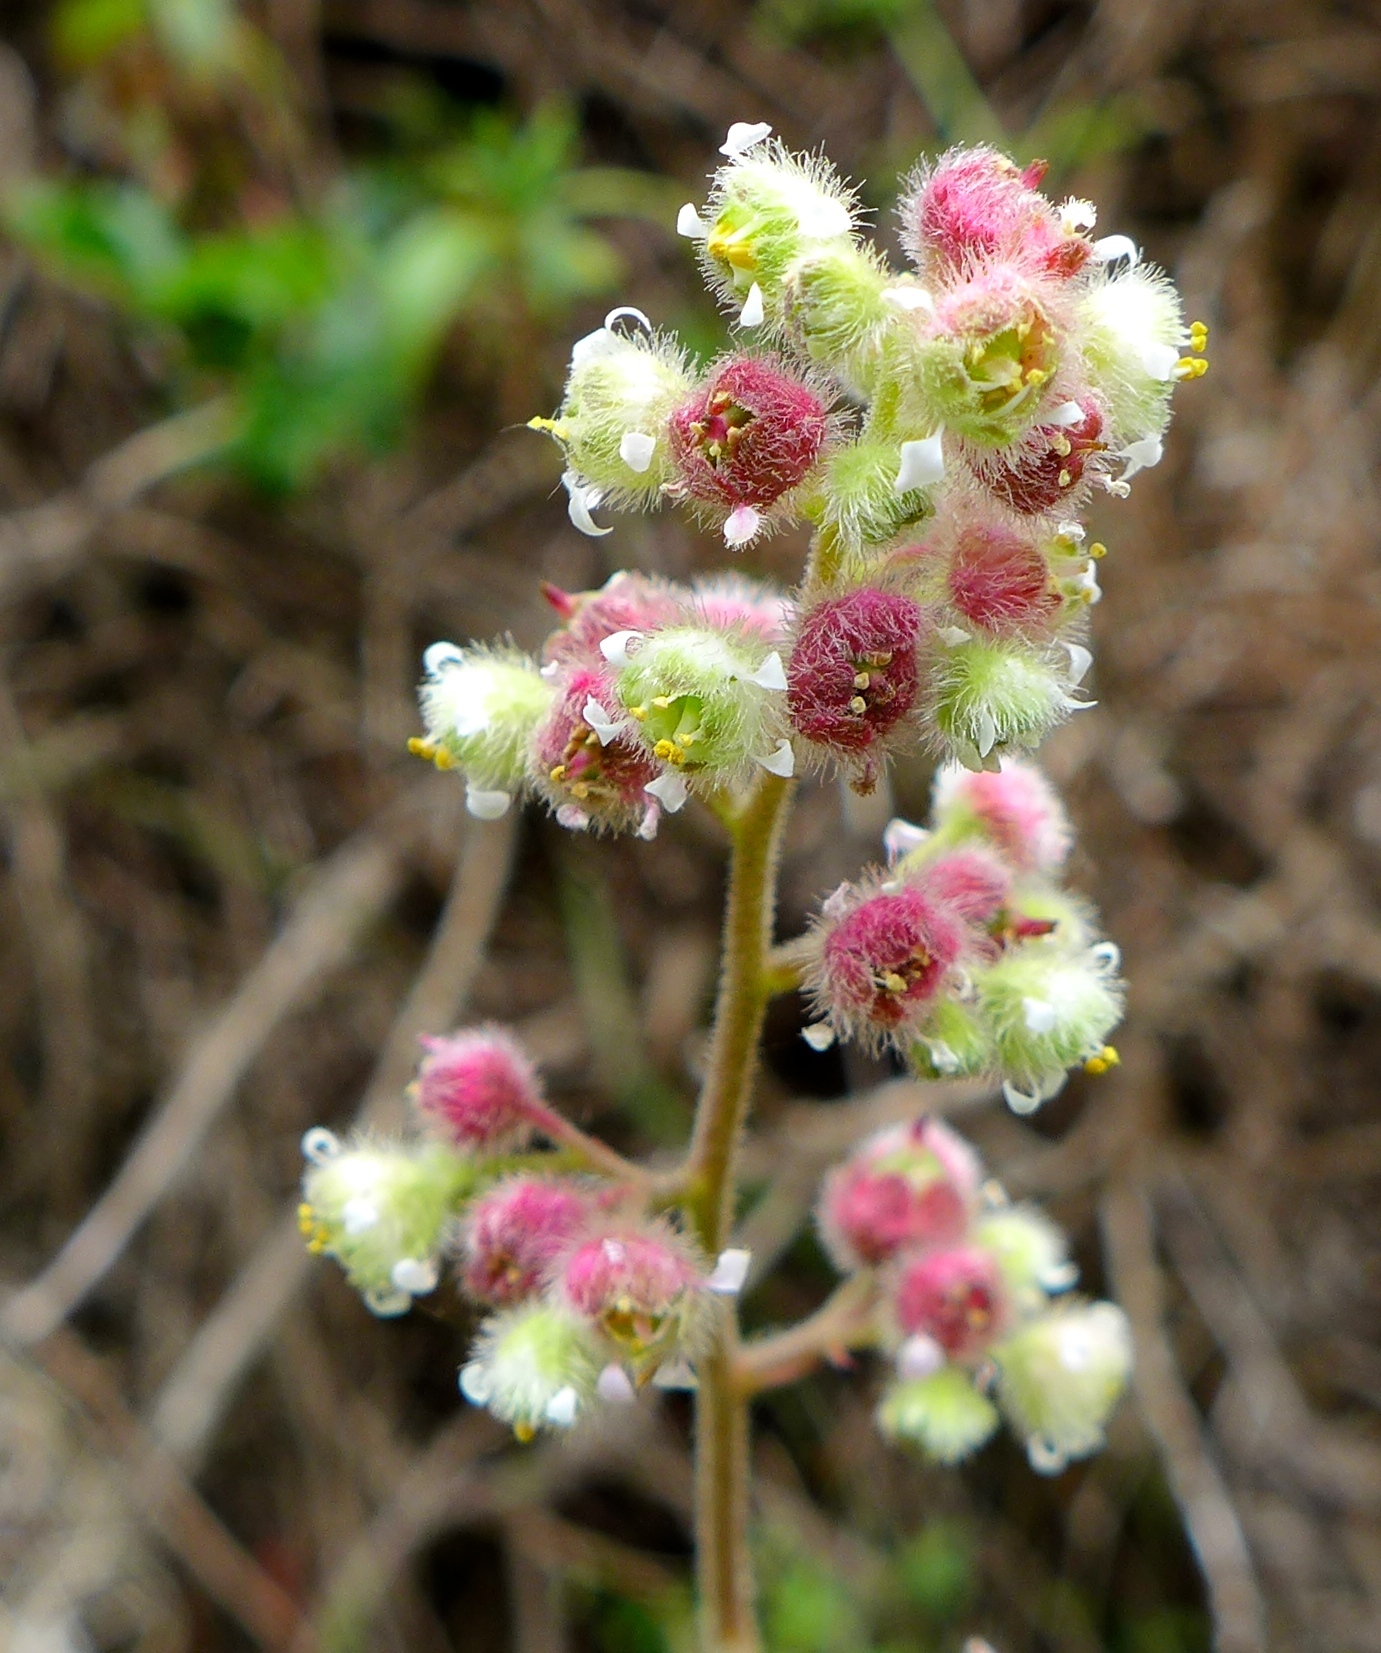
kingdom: Plantae
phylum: Tracheophyta
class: Magnoliopsida
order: Saxifragales
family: Saxifragaceae
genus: Heuchera
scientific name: Heuchera pilosissima
